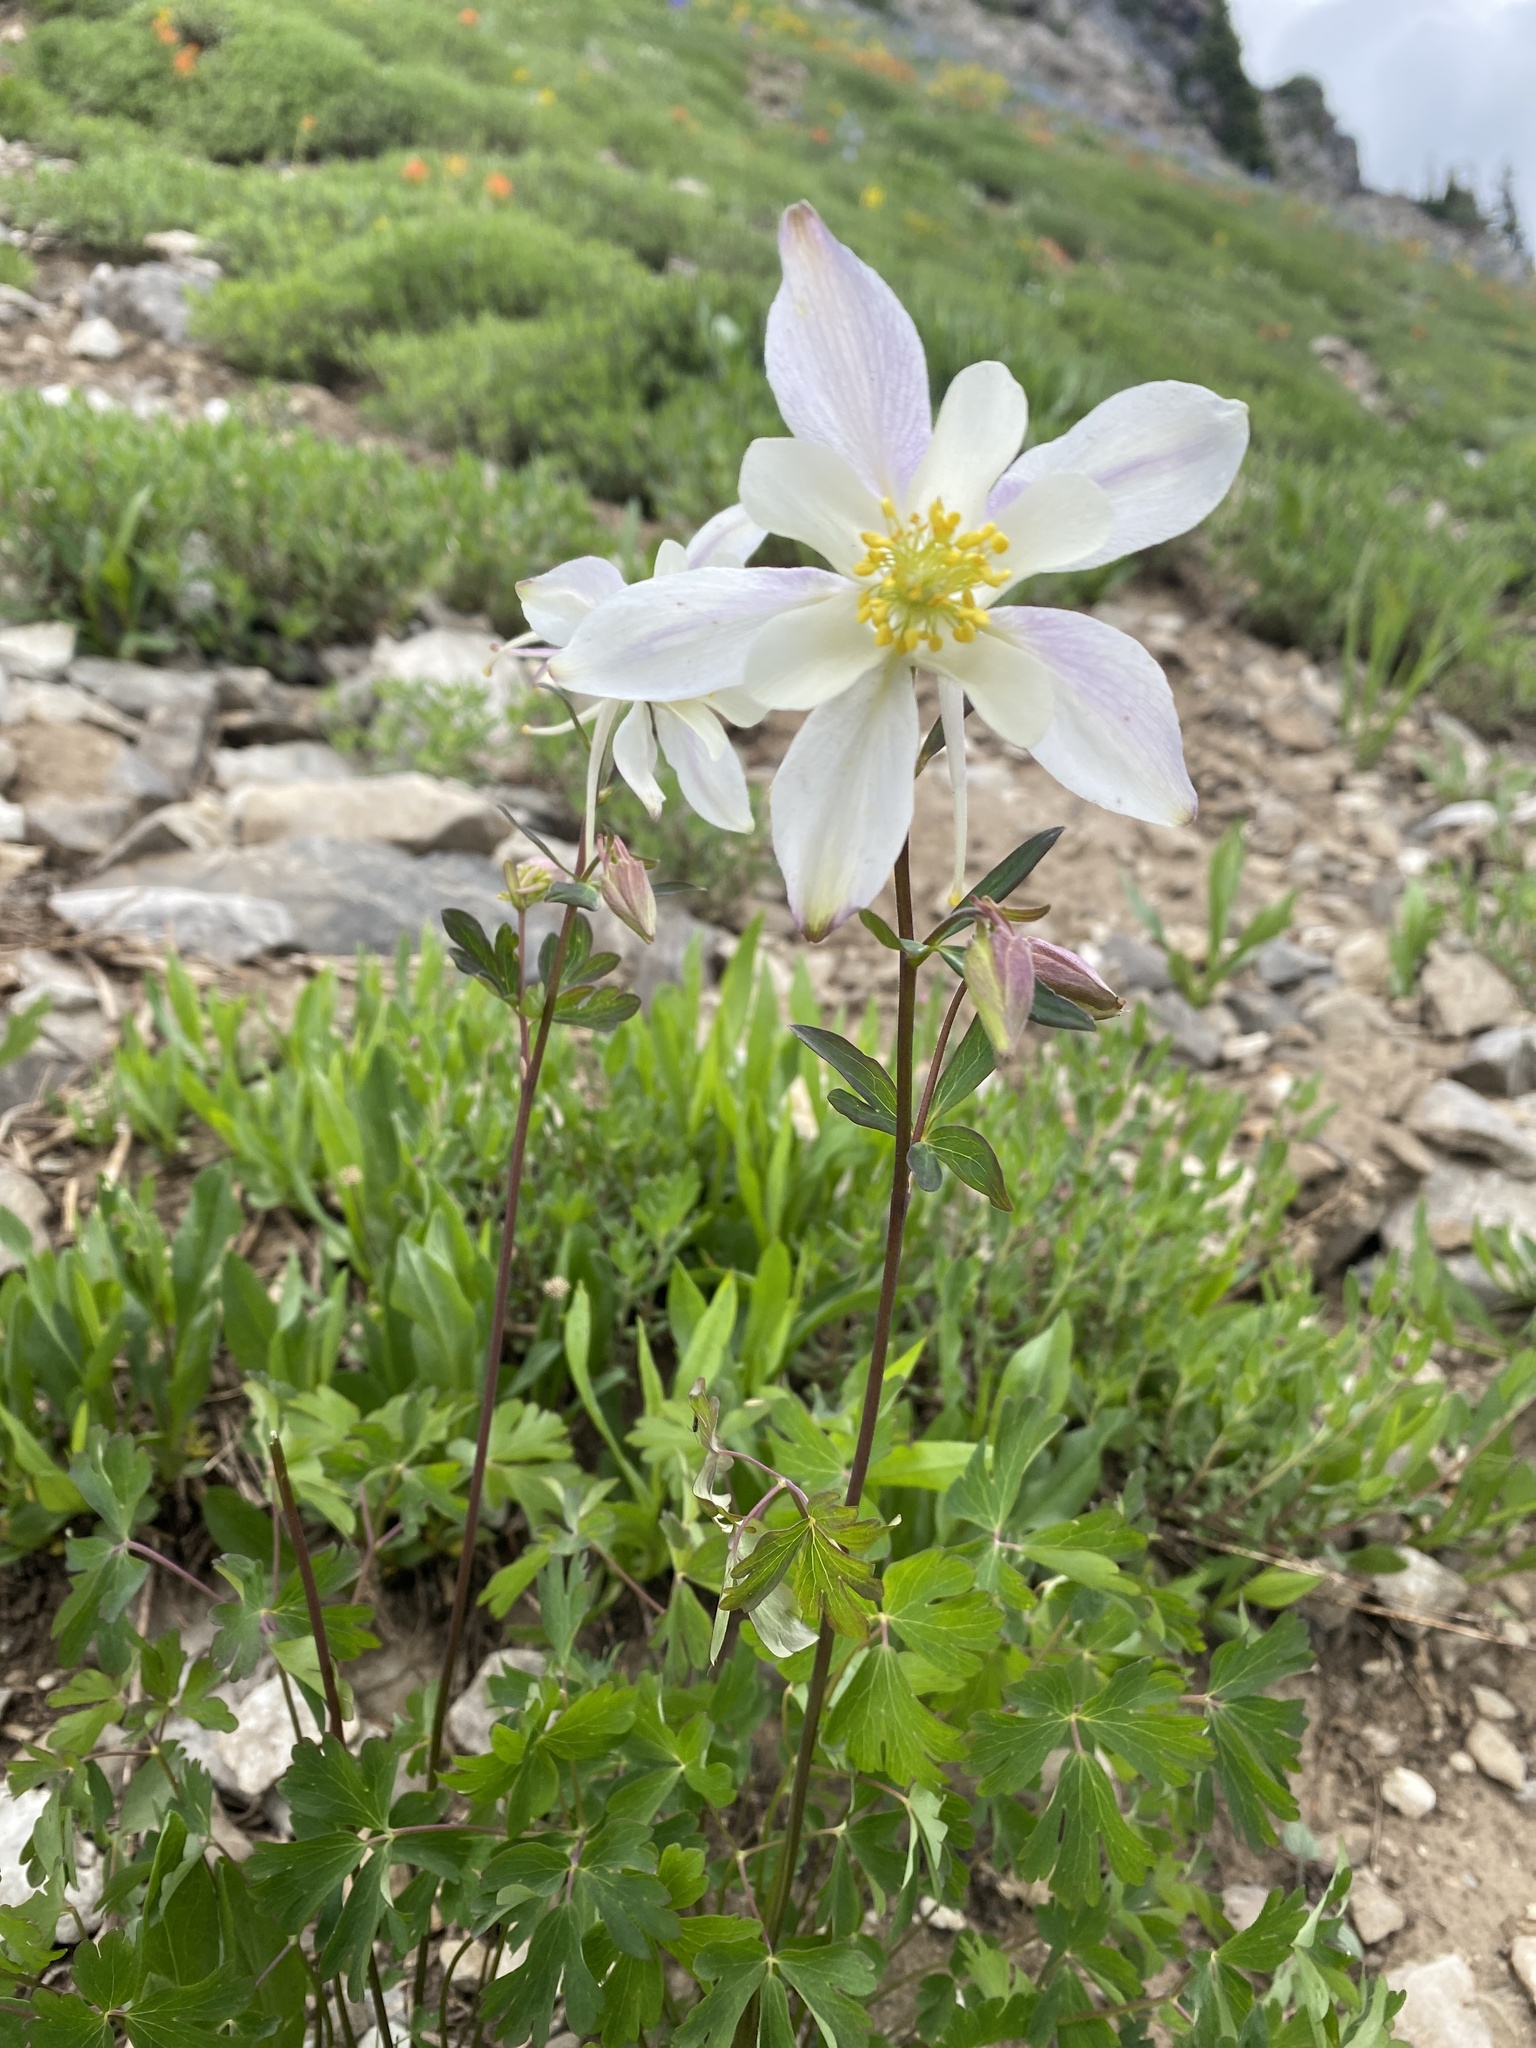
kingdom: Plantae
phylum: Tracheophyta
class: Magnoliopsida
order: Ranunculales
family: Ranunculaceae
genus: Aquilegia
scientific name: Aquilegia coerulea
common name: Rocky mountain columbine
